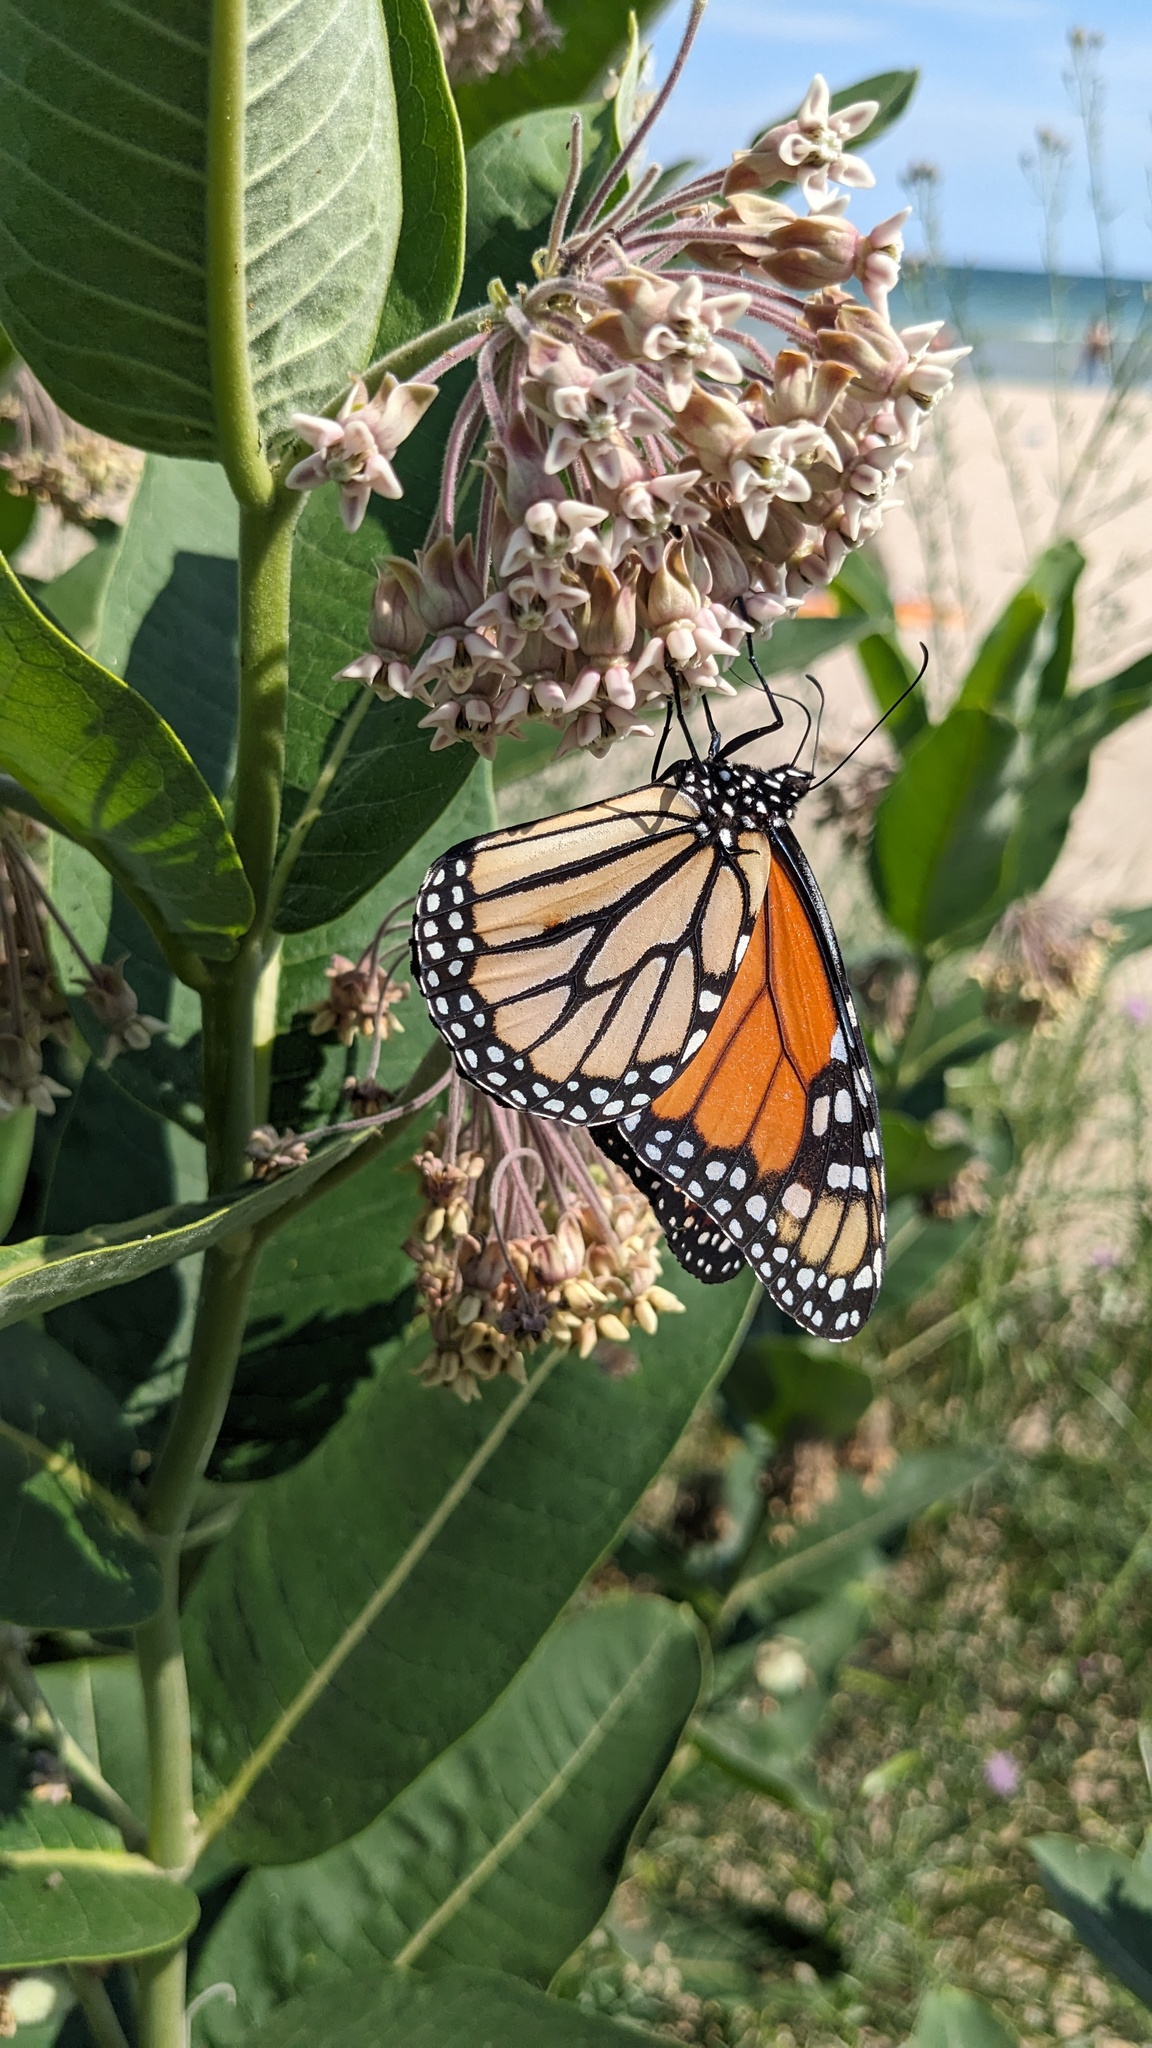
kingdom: Animalia
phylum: Arthropoda
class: Insecta
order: Lepidoptera
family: Nymphalidae
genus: Danaus
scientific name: Danaus plexippus
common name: Monarch
